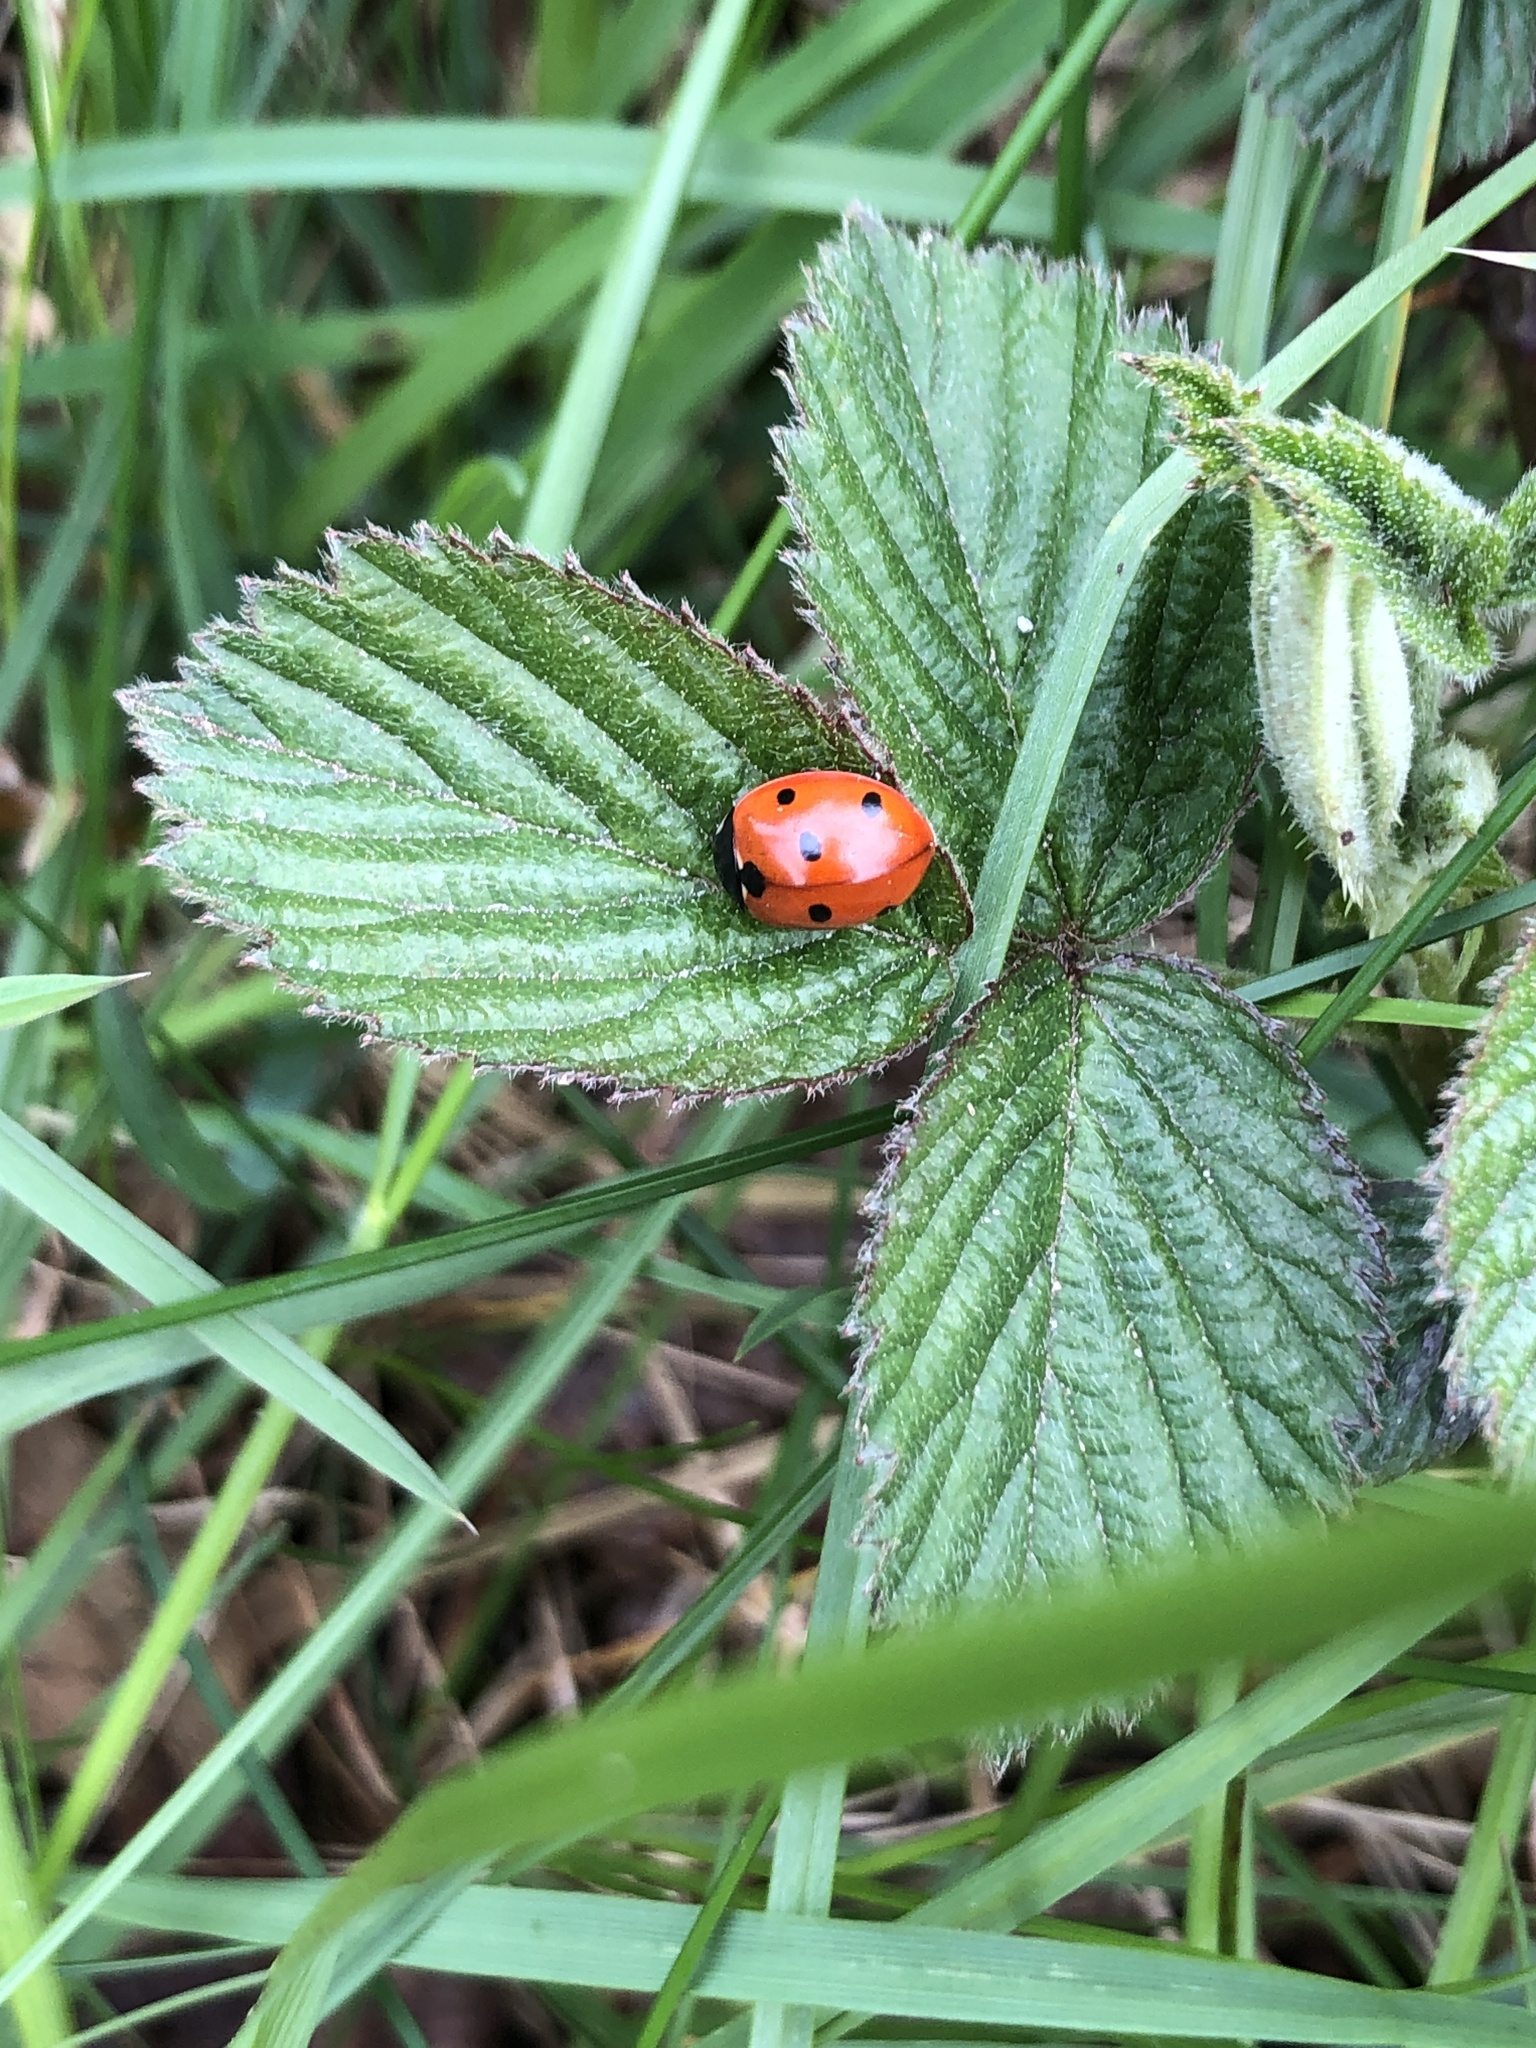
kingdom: Animalia
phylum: Arthropoda
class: Insecta
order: Coleoptera
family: Coccinellidae
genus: Coccinella
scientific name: Coccinella septempunctata
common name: Sevenspotted lady beetle
